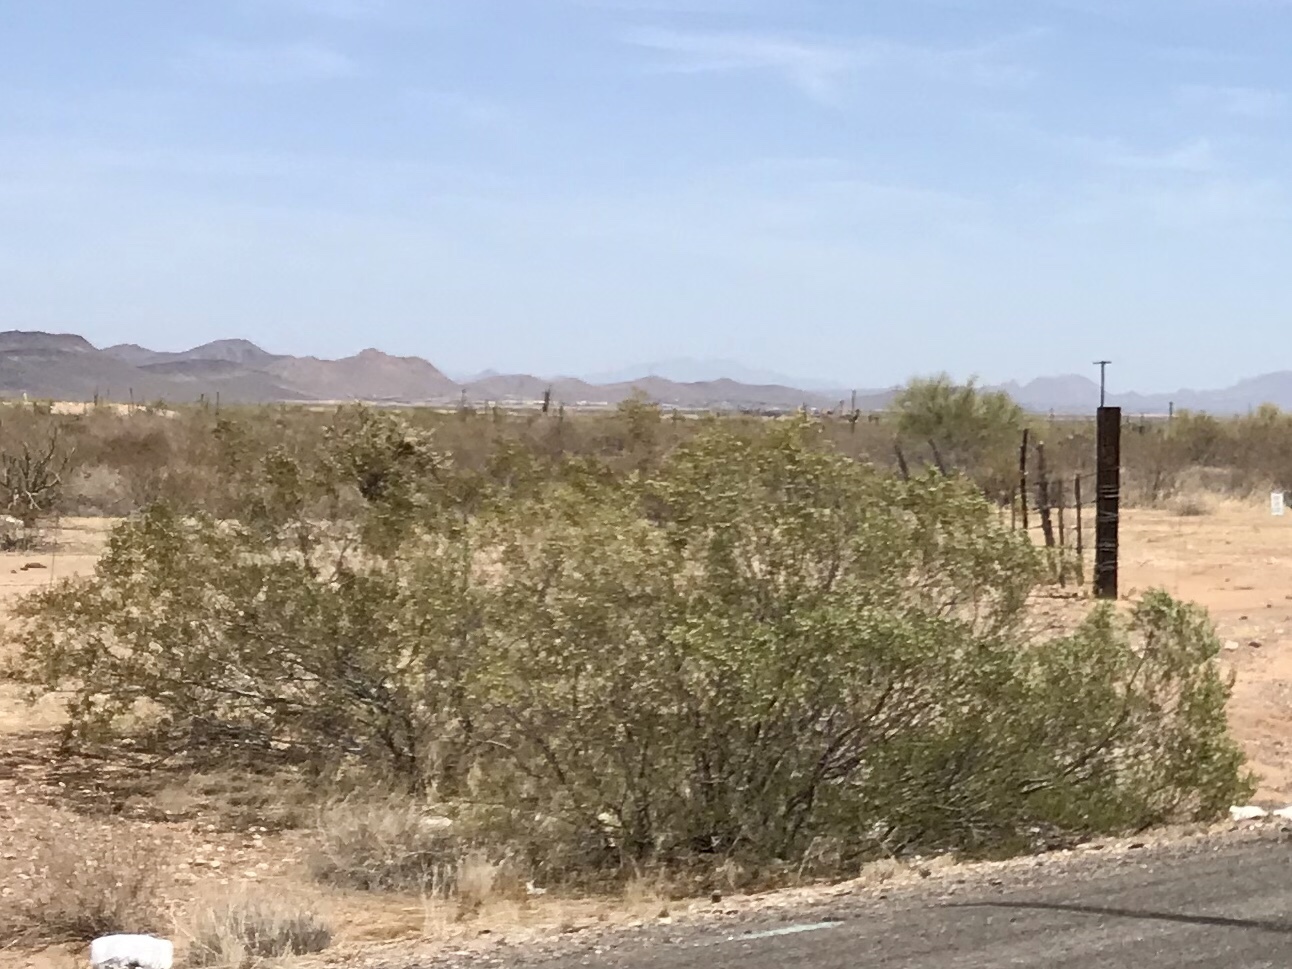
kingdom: Plantae
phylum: Tracheophyta
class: Magnoliopsida
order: Zygophyllales
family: Zygophyllaceae
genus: Larrea
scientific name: Larrea tridentata
